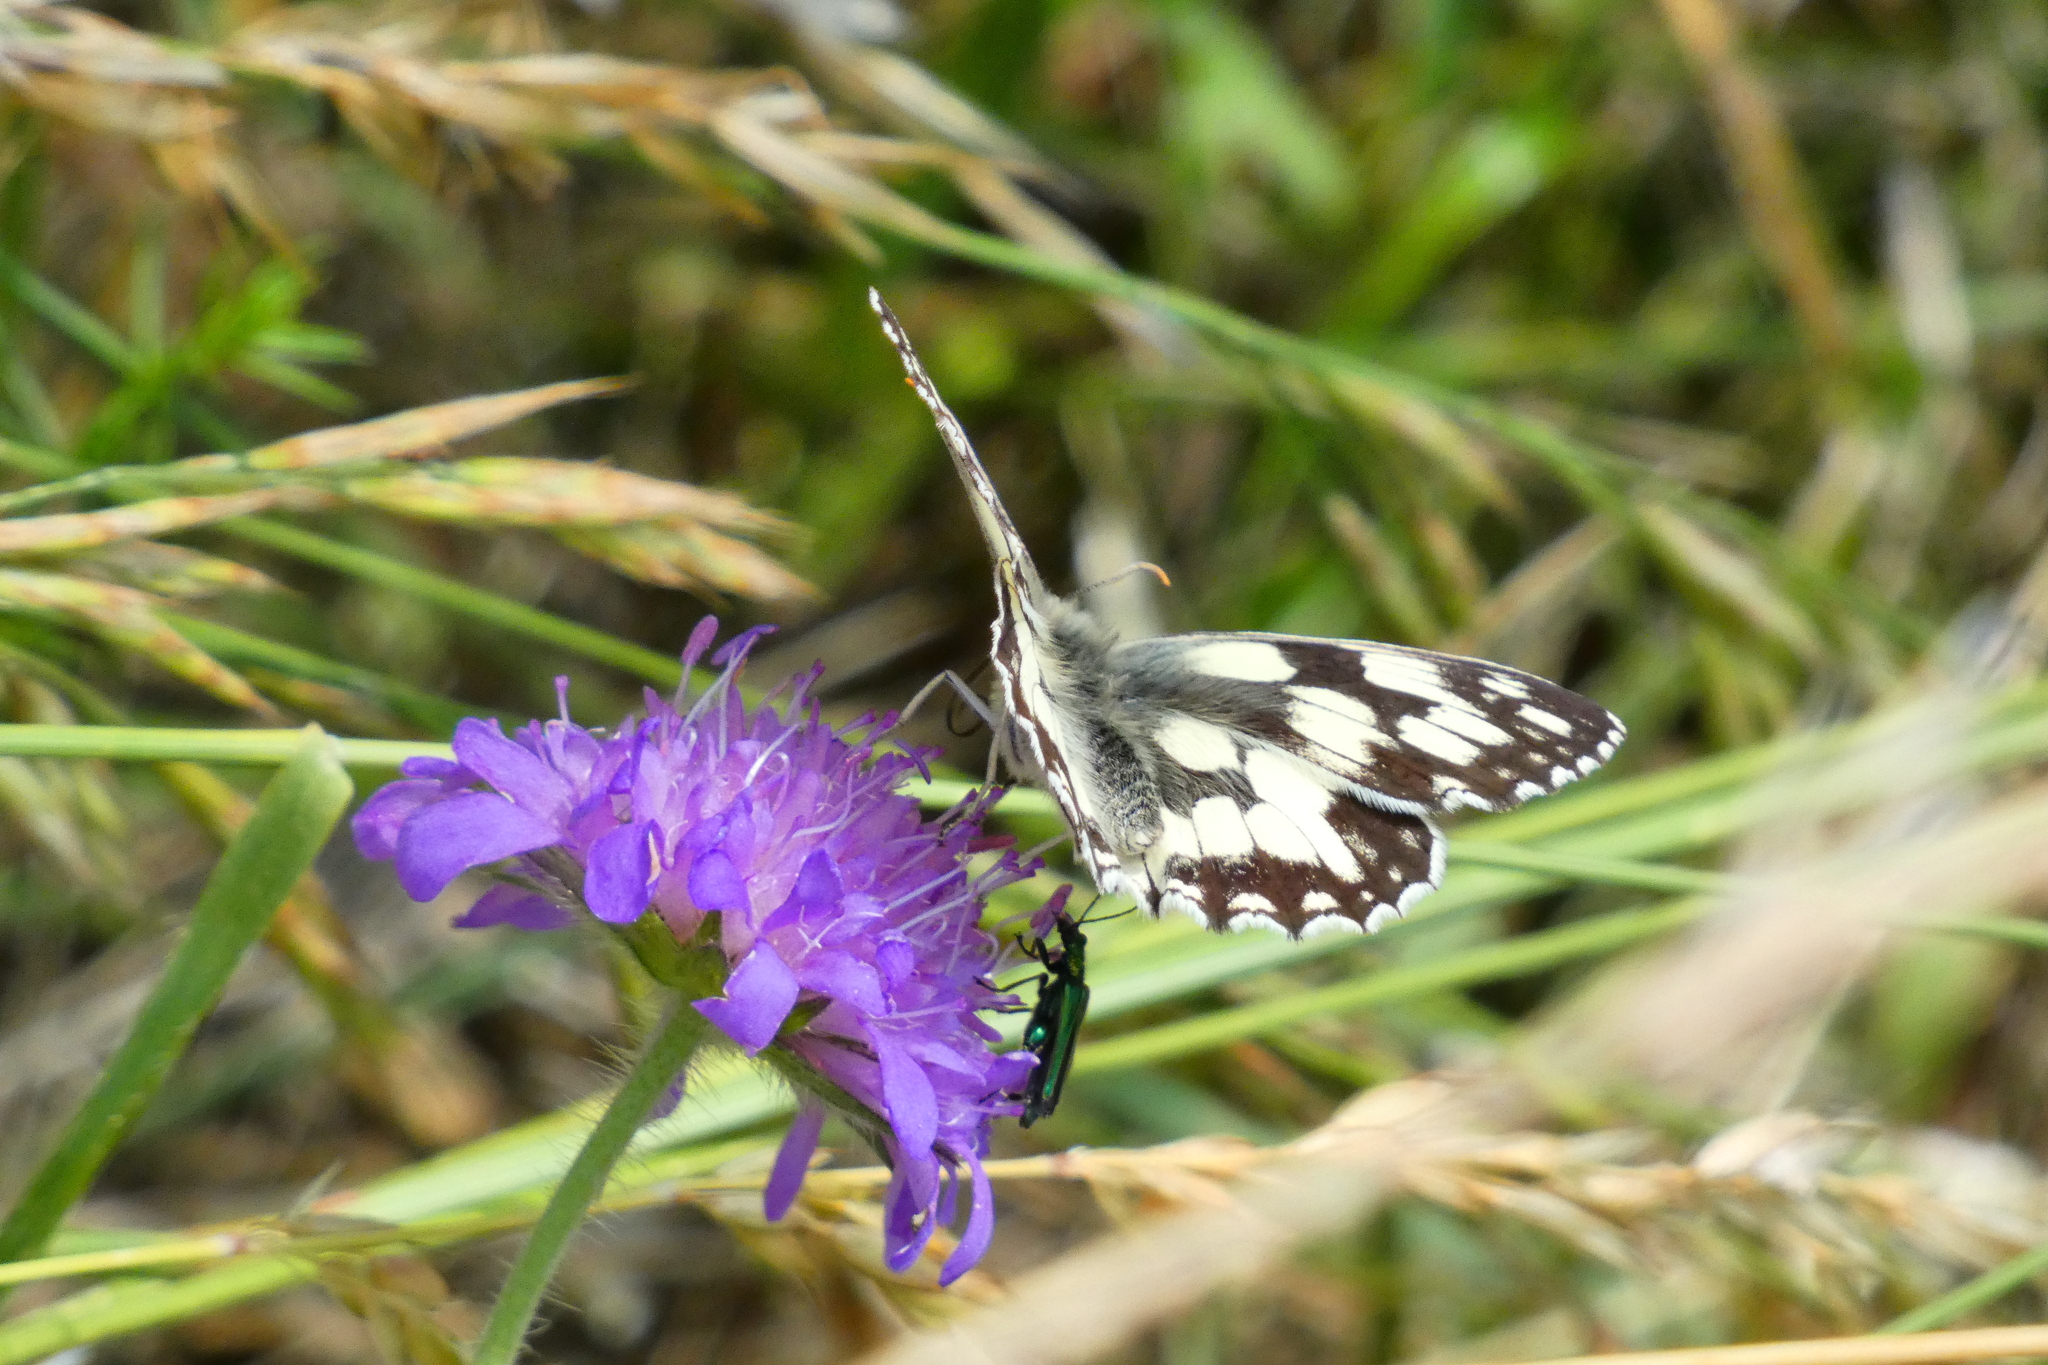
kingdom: Animalia
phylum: Arthropoda
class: Insecta
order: Lepidoptera
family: Nymphalidae
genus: Melanargia
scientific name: Melanargia galathea
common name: Marbled white
